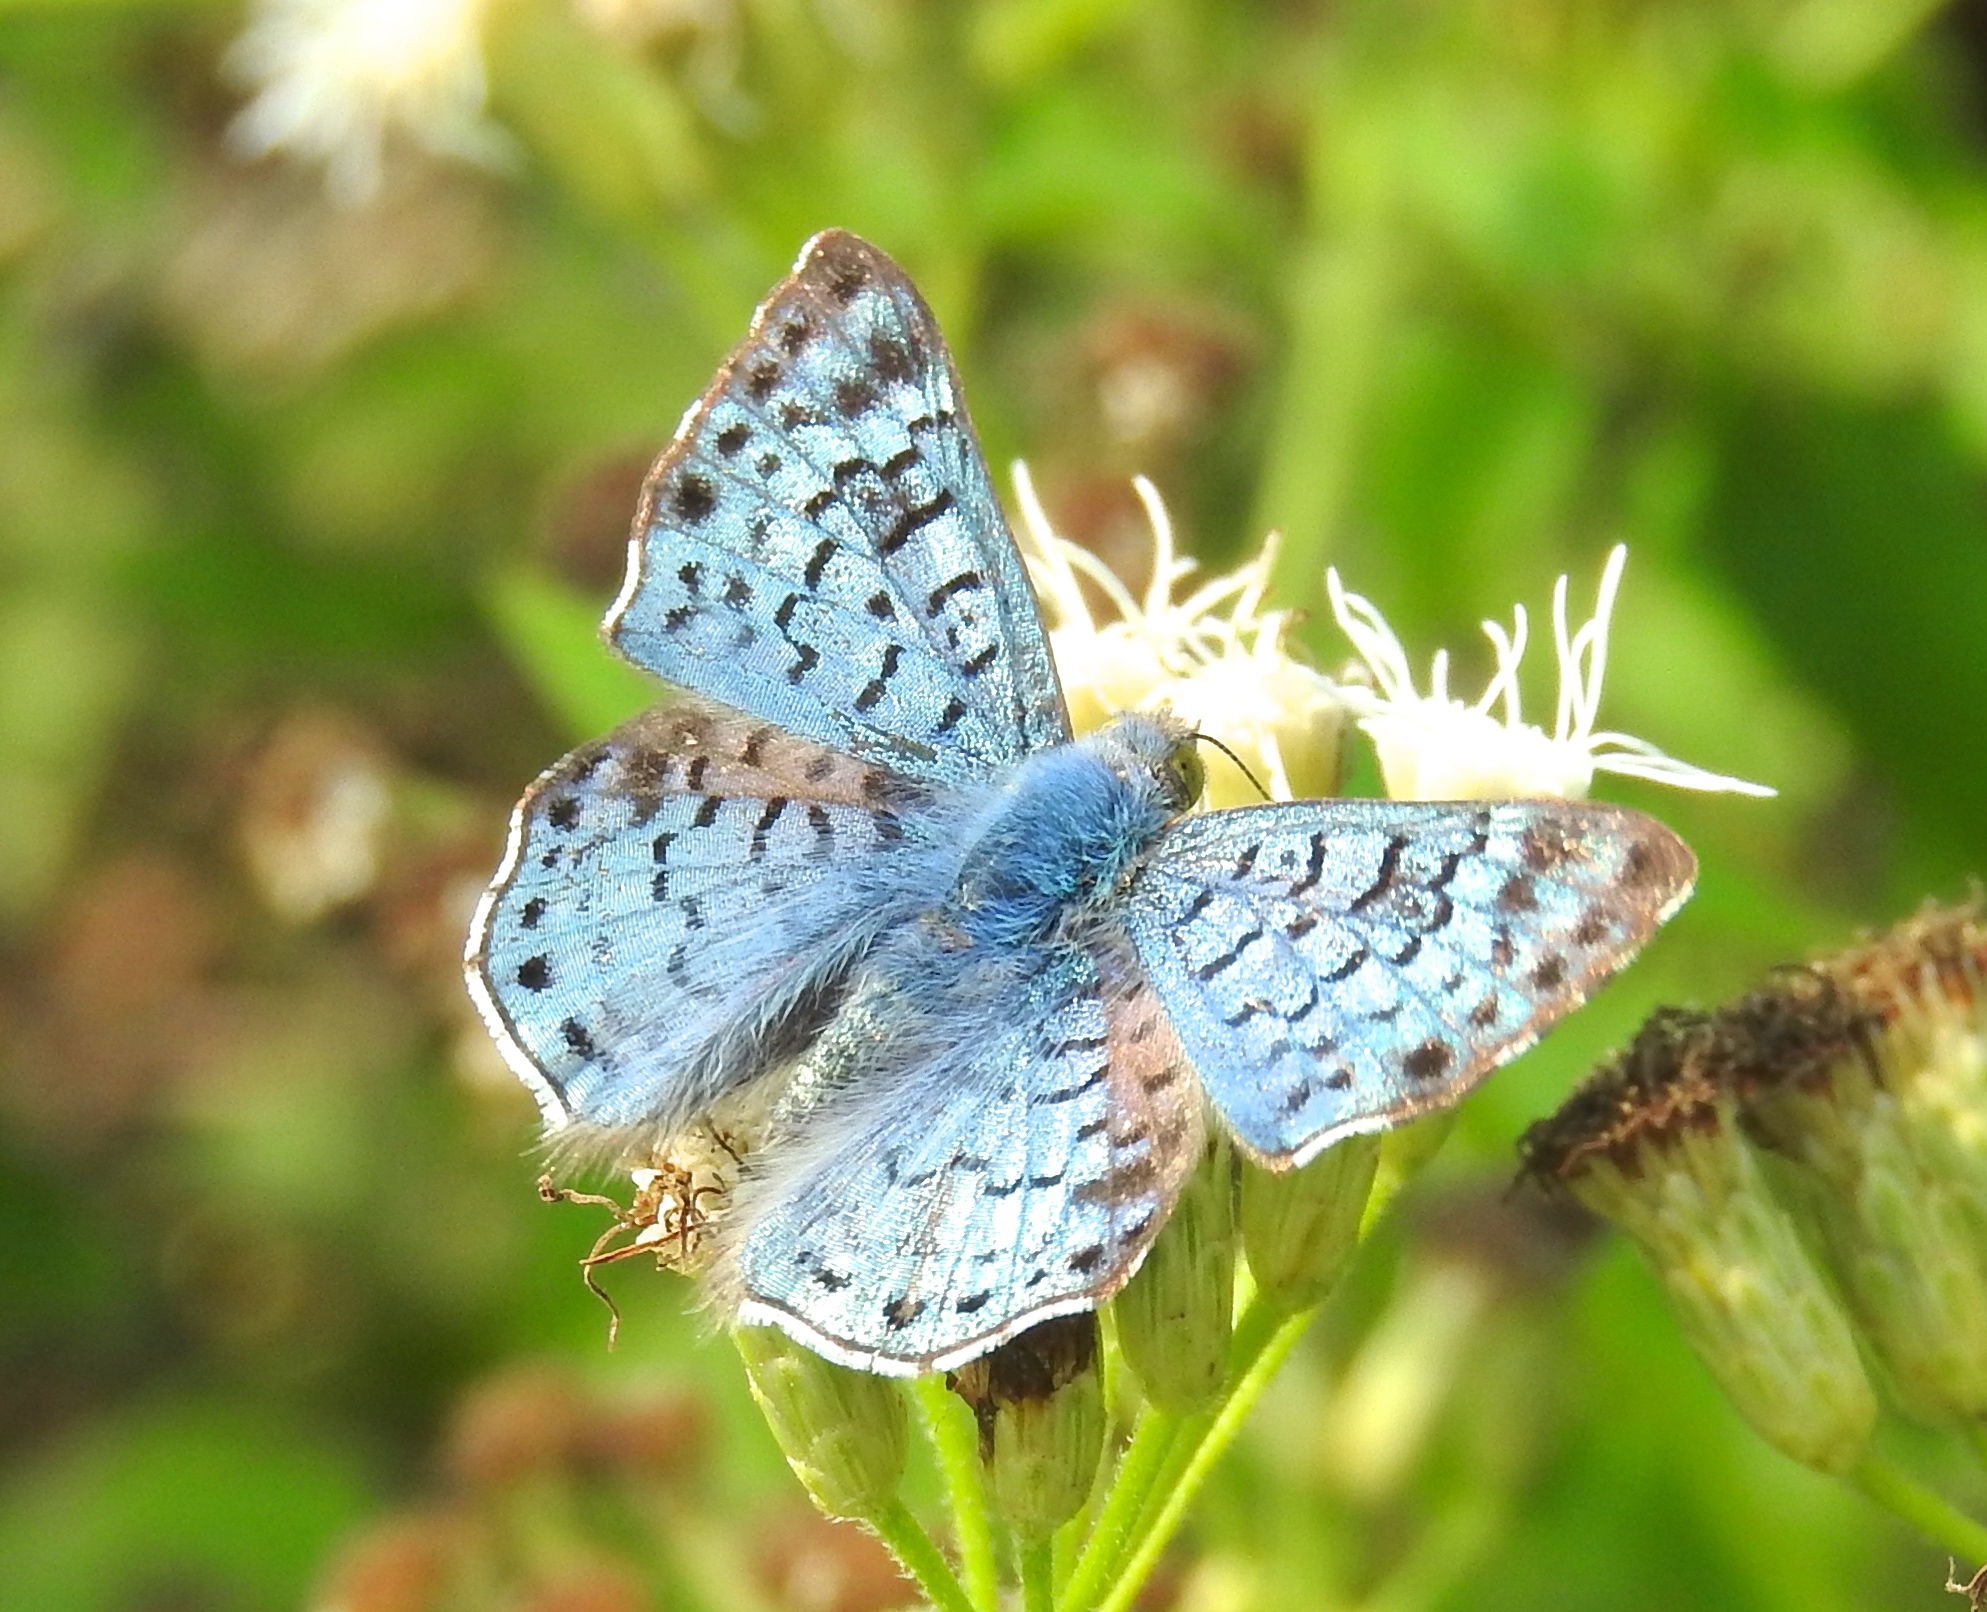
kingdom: Animalia
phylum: Arthropoda
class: Insecta
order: Lepidoptera
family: Riodinidae
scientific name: Riodinidae
